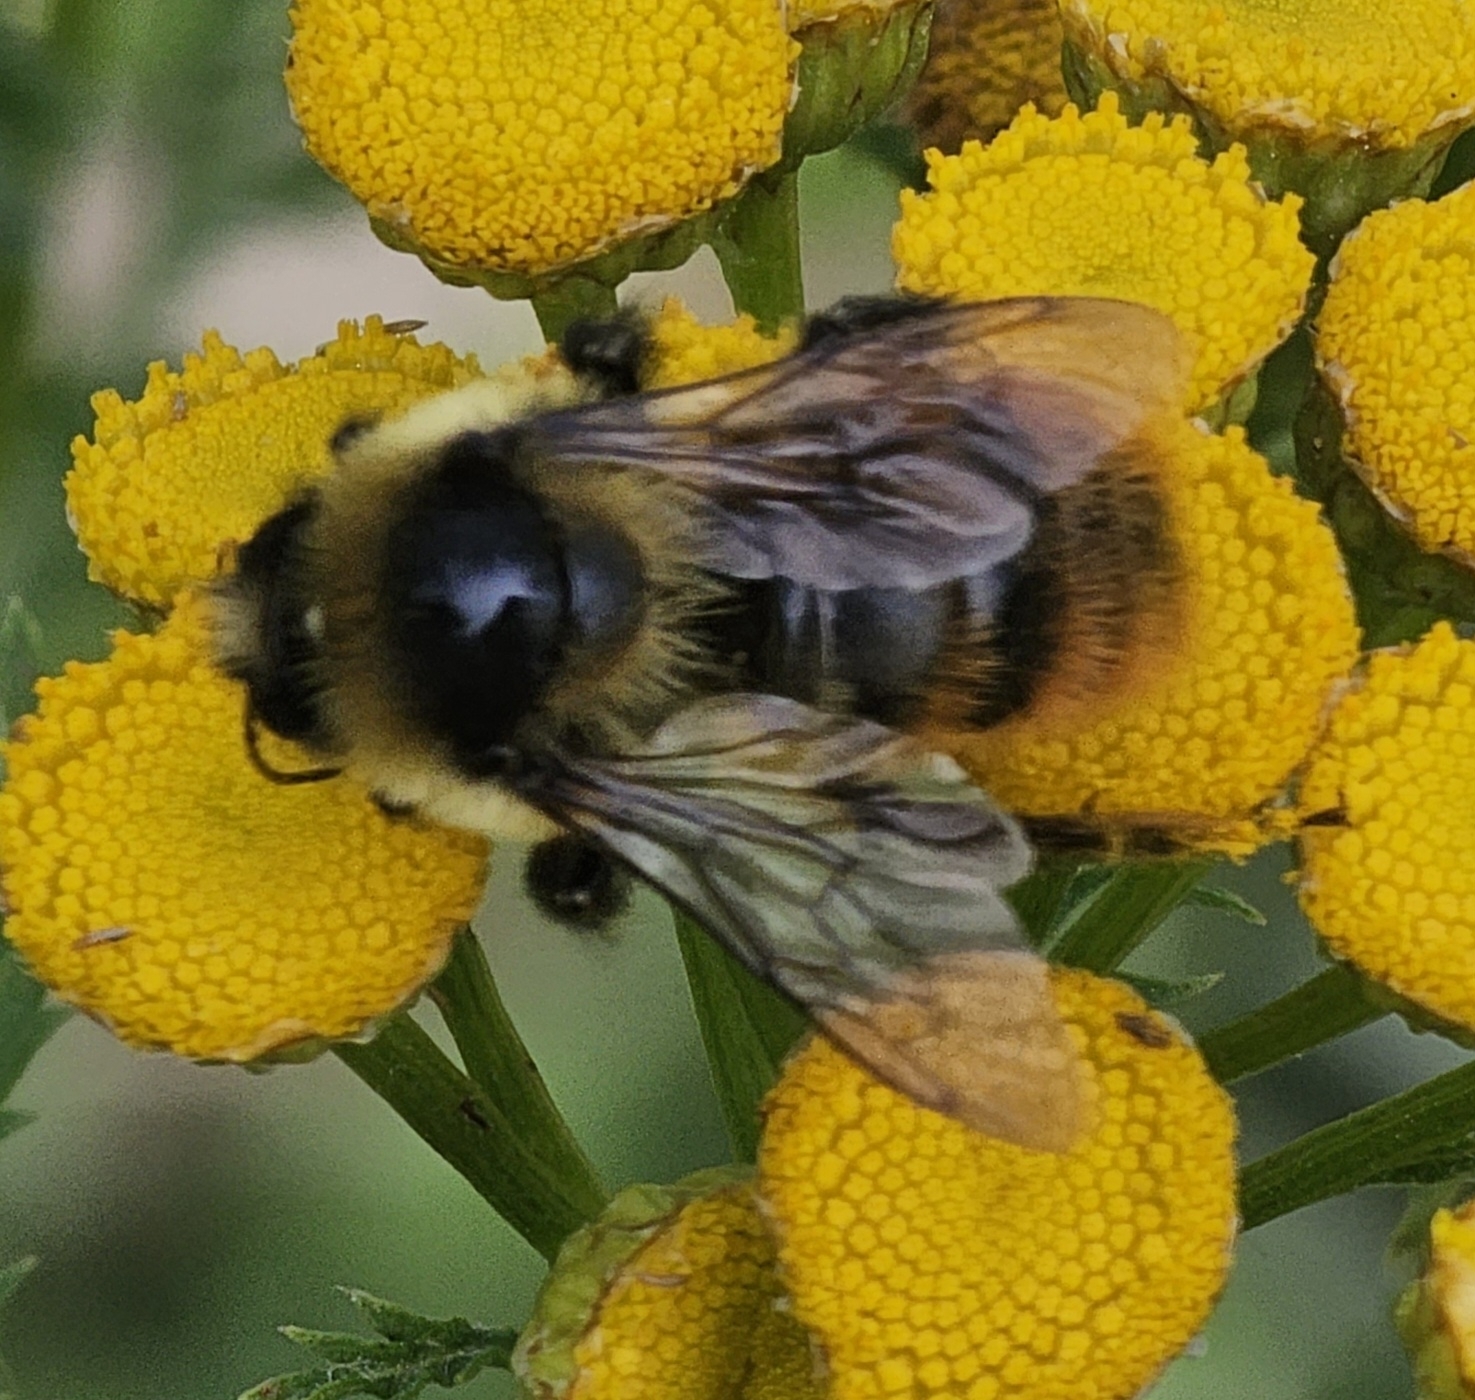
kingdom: Animalia
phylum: Arthropoda
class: Insecta
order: Hymenoptera
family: Apidae
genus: Bombus
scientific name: Bombus rufocinctus
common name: Red-belted bumble bee
